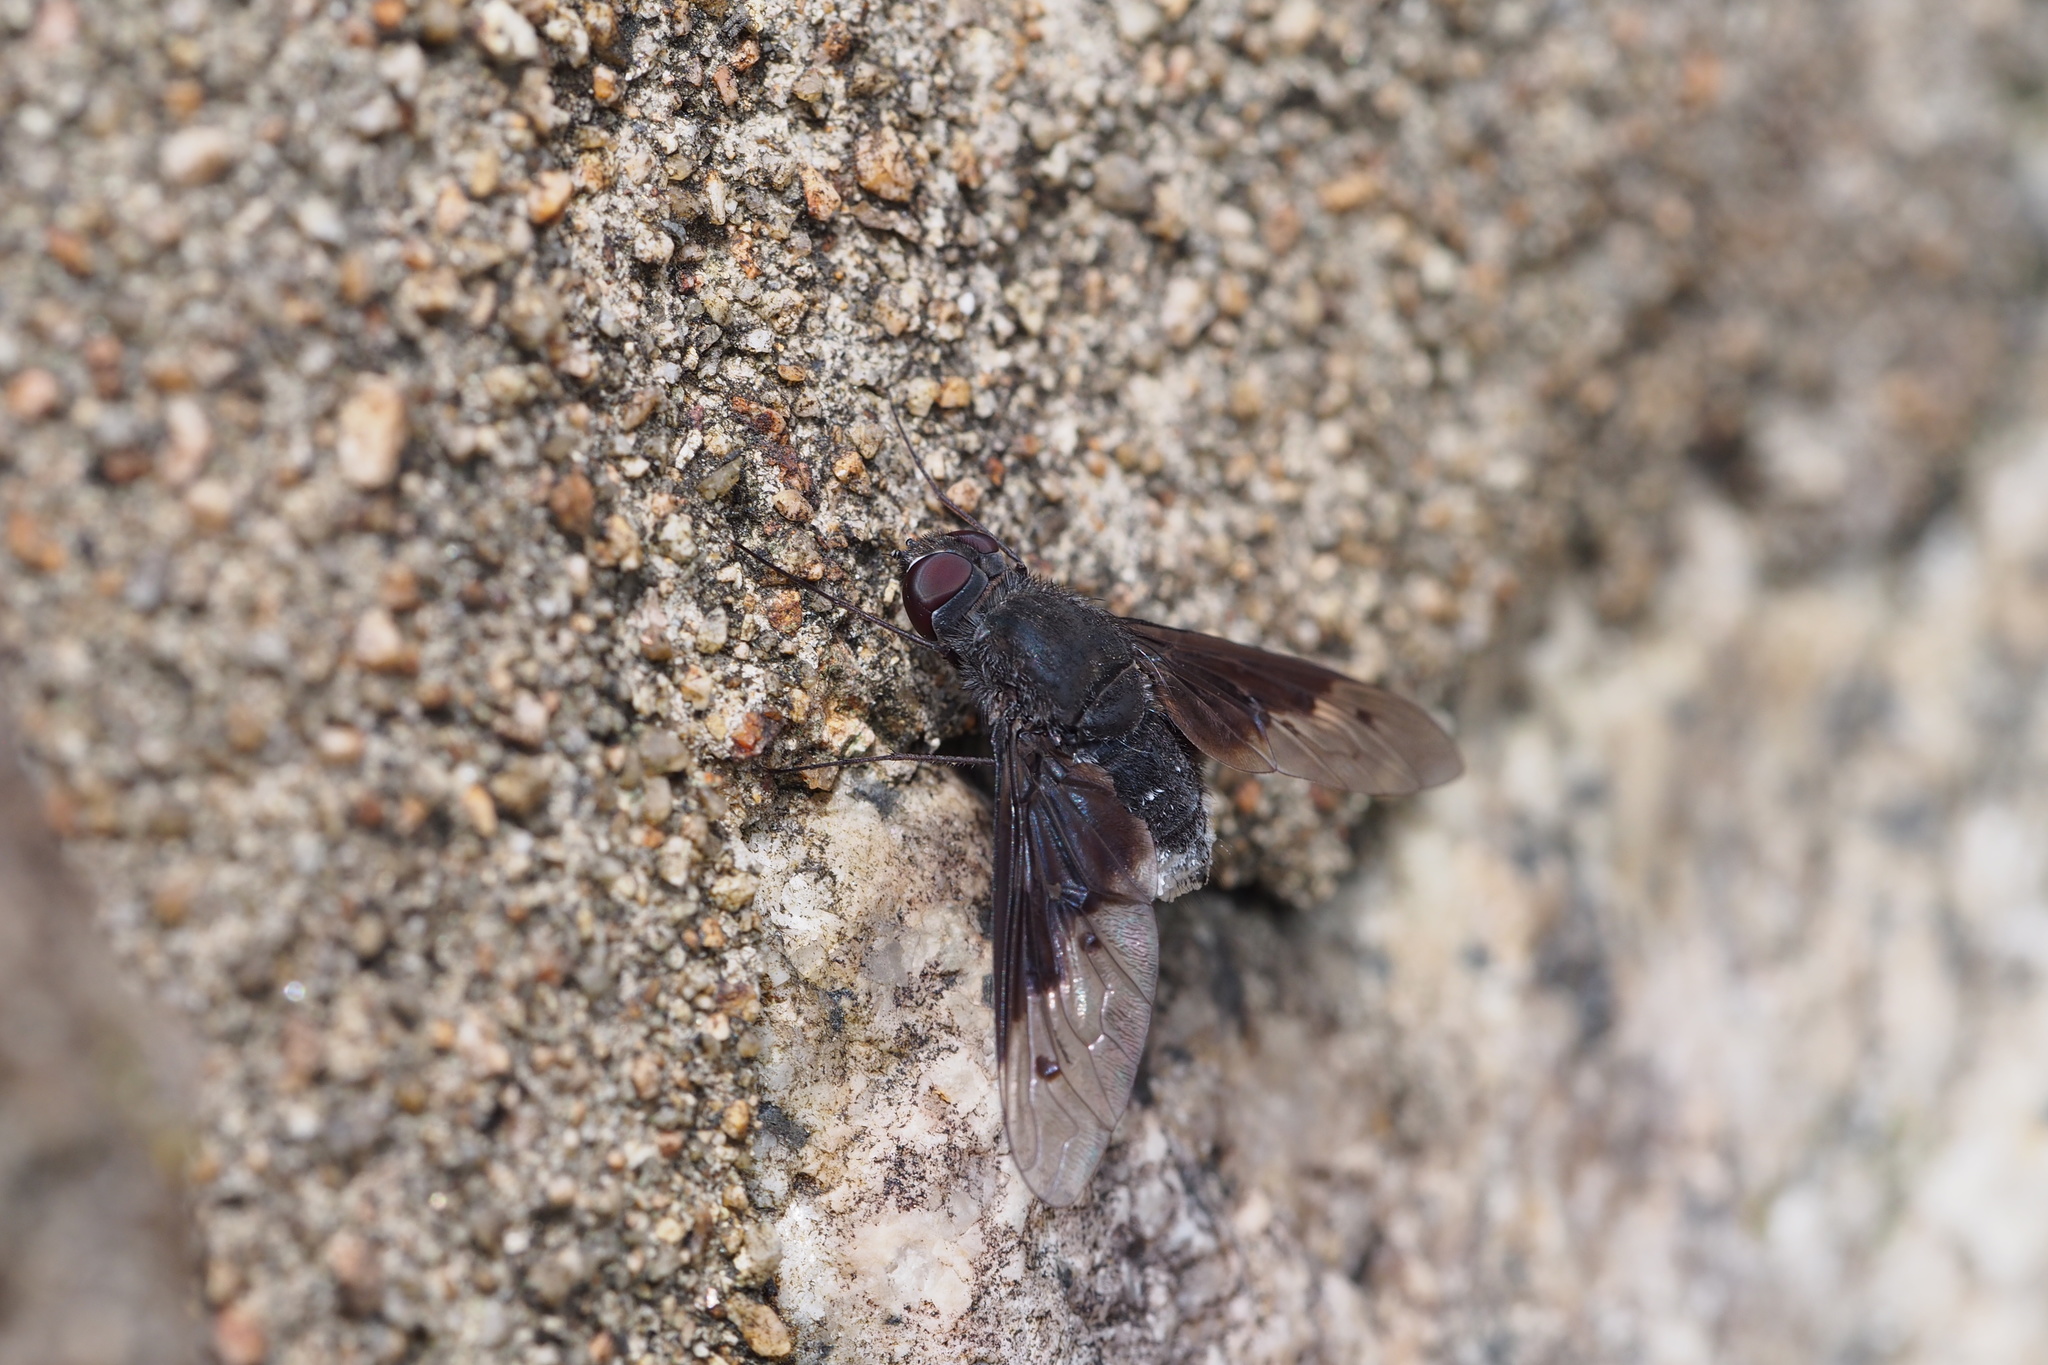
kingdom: Animalia
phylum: Arthropoda
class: Insecta
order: Diptera
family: Bombyliidae
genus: Anthrax
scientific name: Anthrax aygulus
